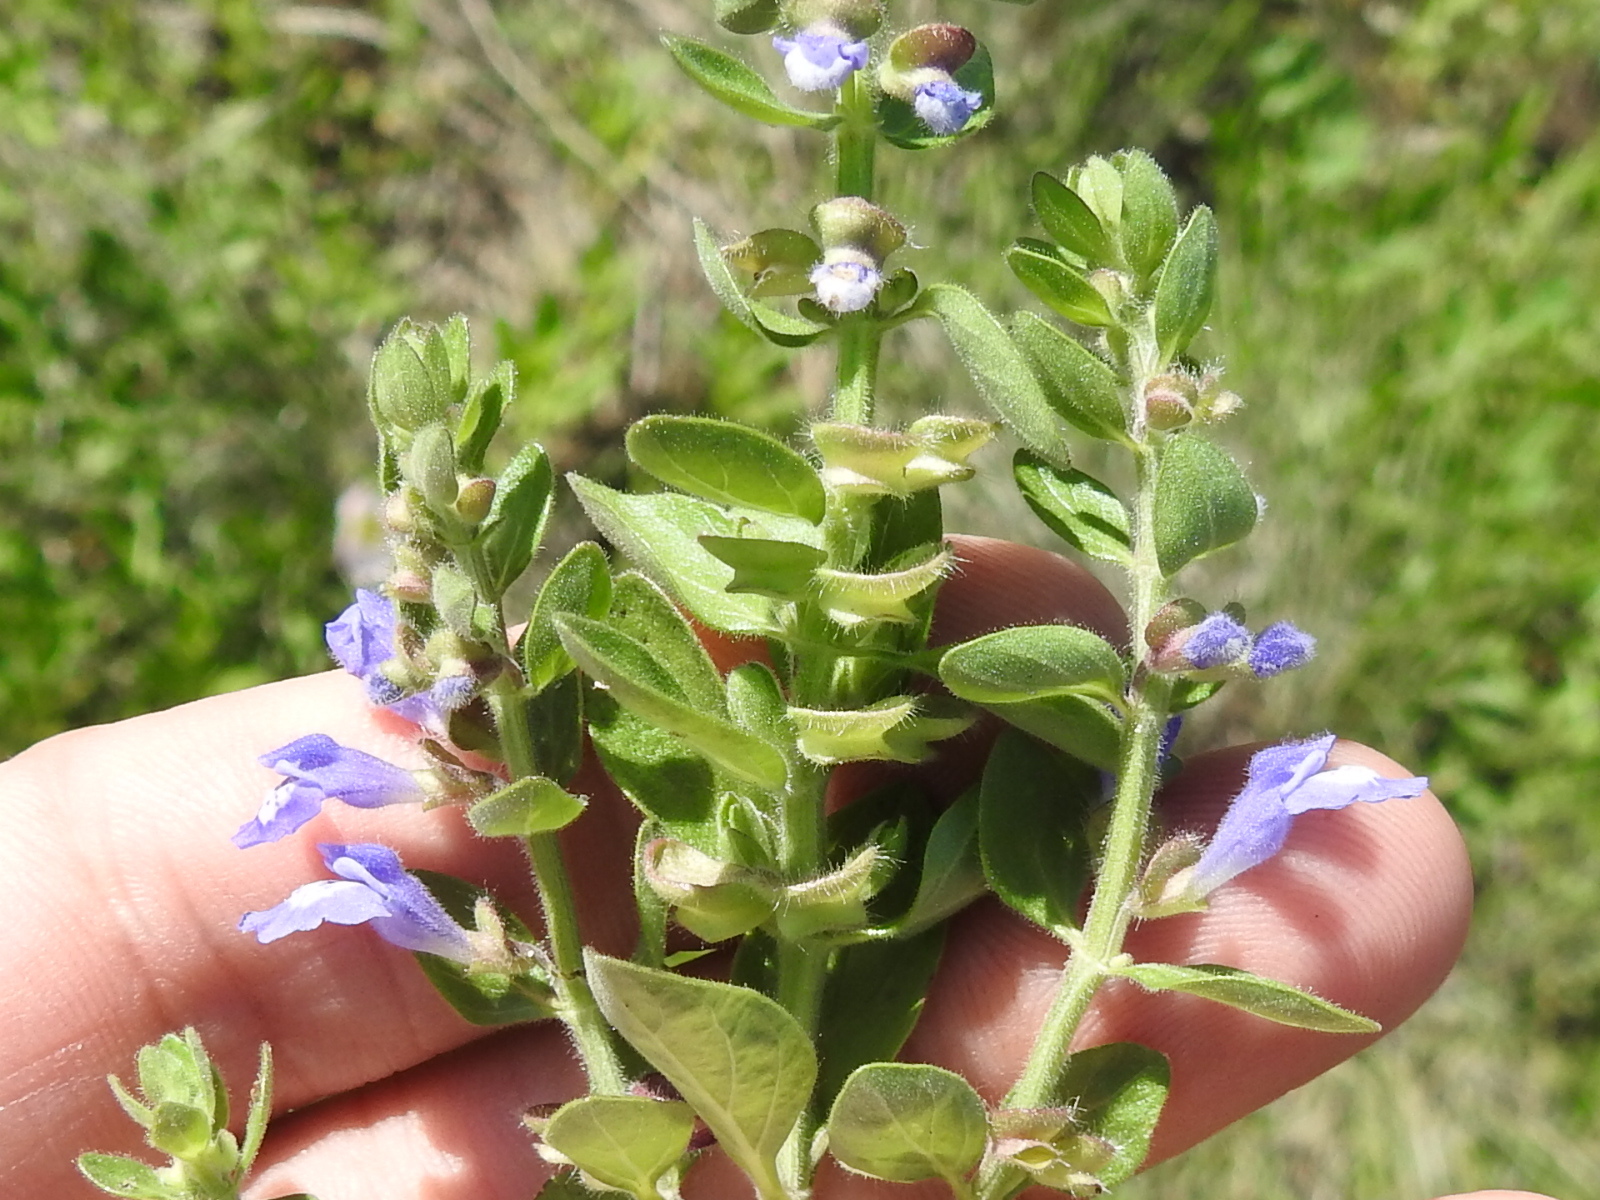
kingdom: Plantae
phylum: Tracheophyta
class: Magnoliopsida
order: Lamiales
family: Lamiaceae
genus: Scutellaria
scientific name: Scutellaria drummondii
